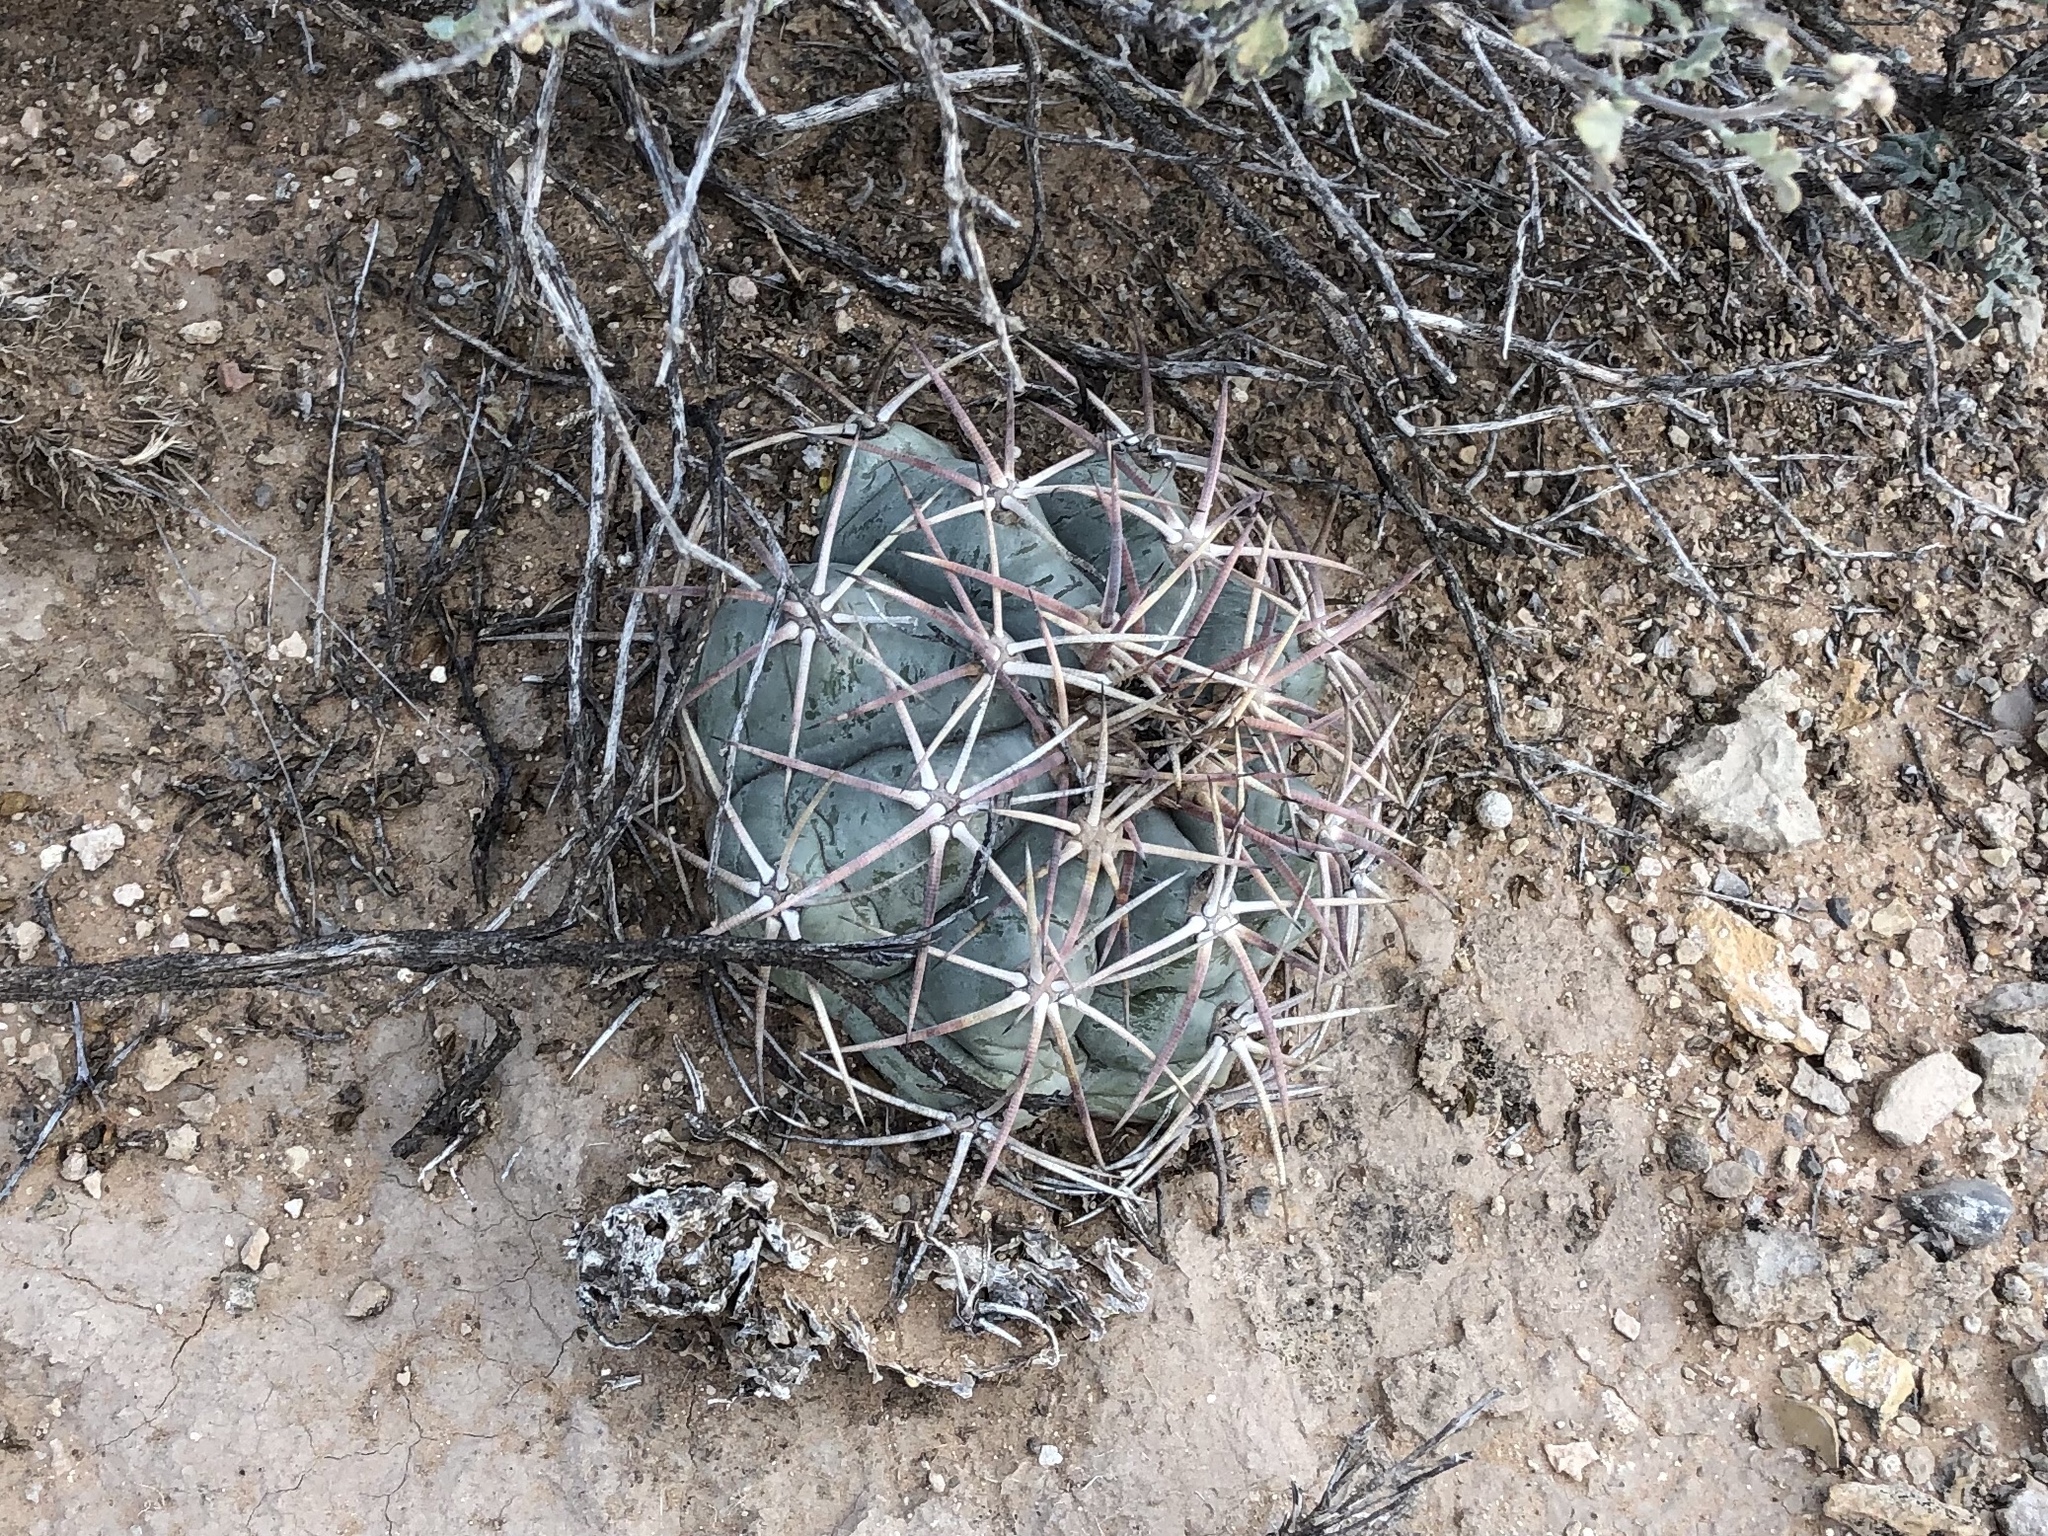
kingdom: Plantae
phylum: Tracheophyta
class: Magnoliopsida
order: Caryophyllales
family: Cactaceae
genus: Echinocactus
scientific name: Echinocactus horizonthalonius
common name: Devilshead
